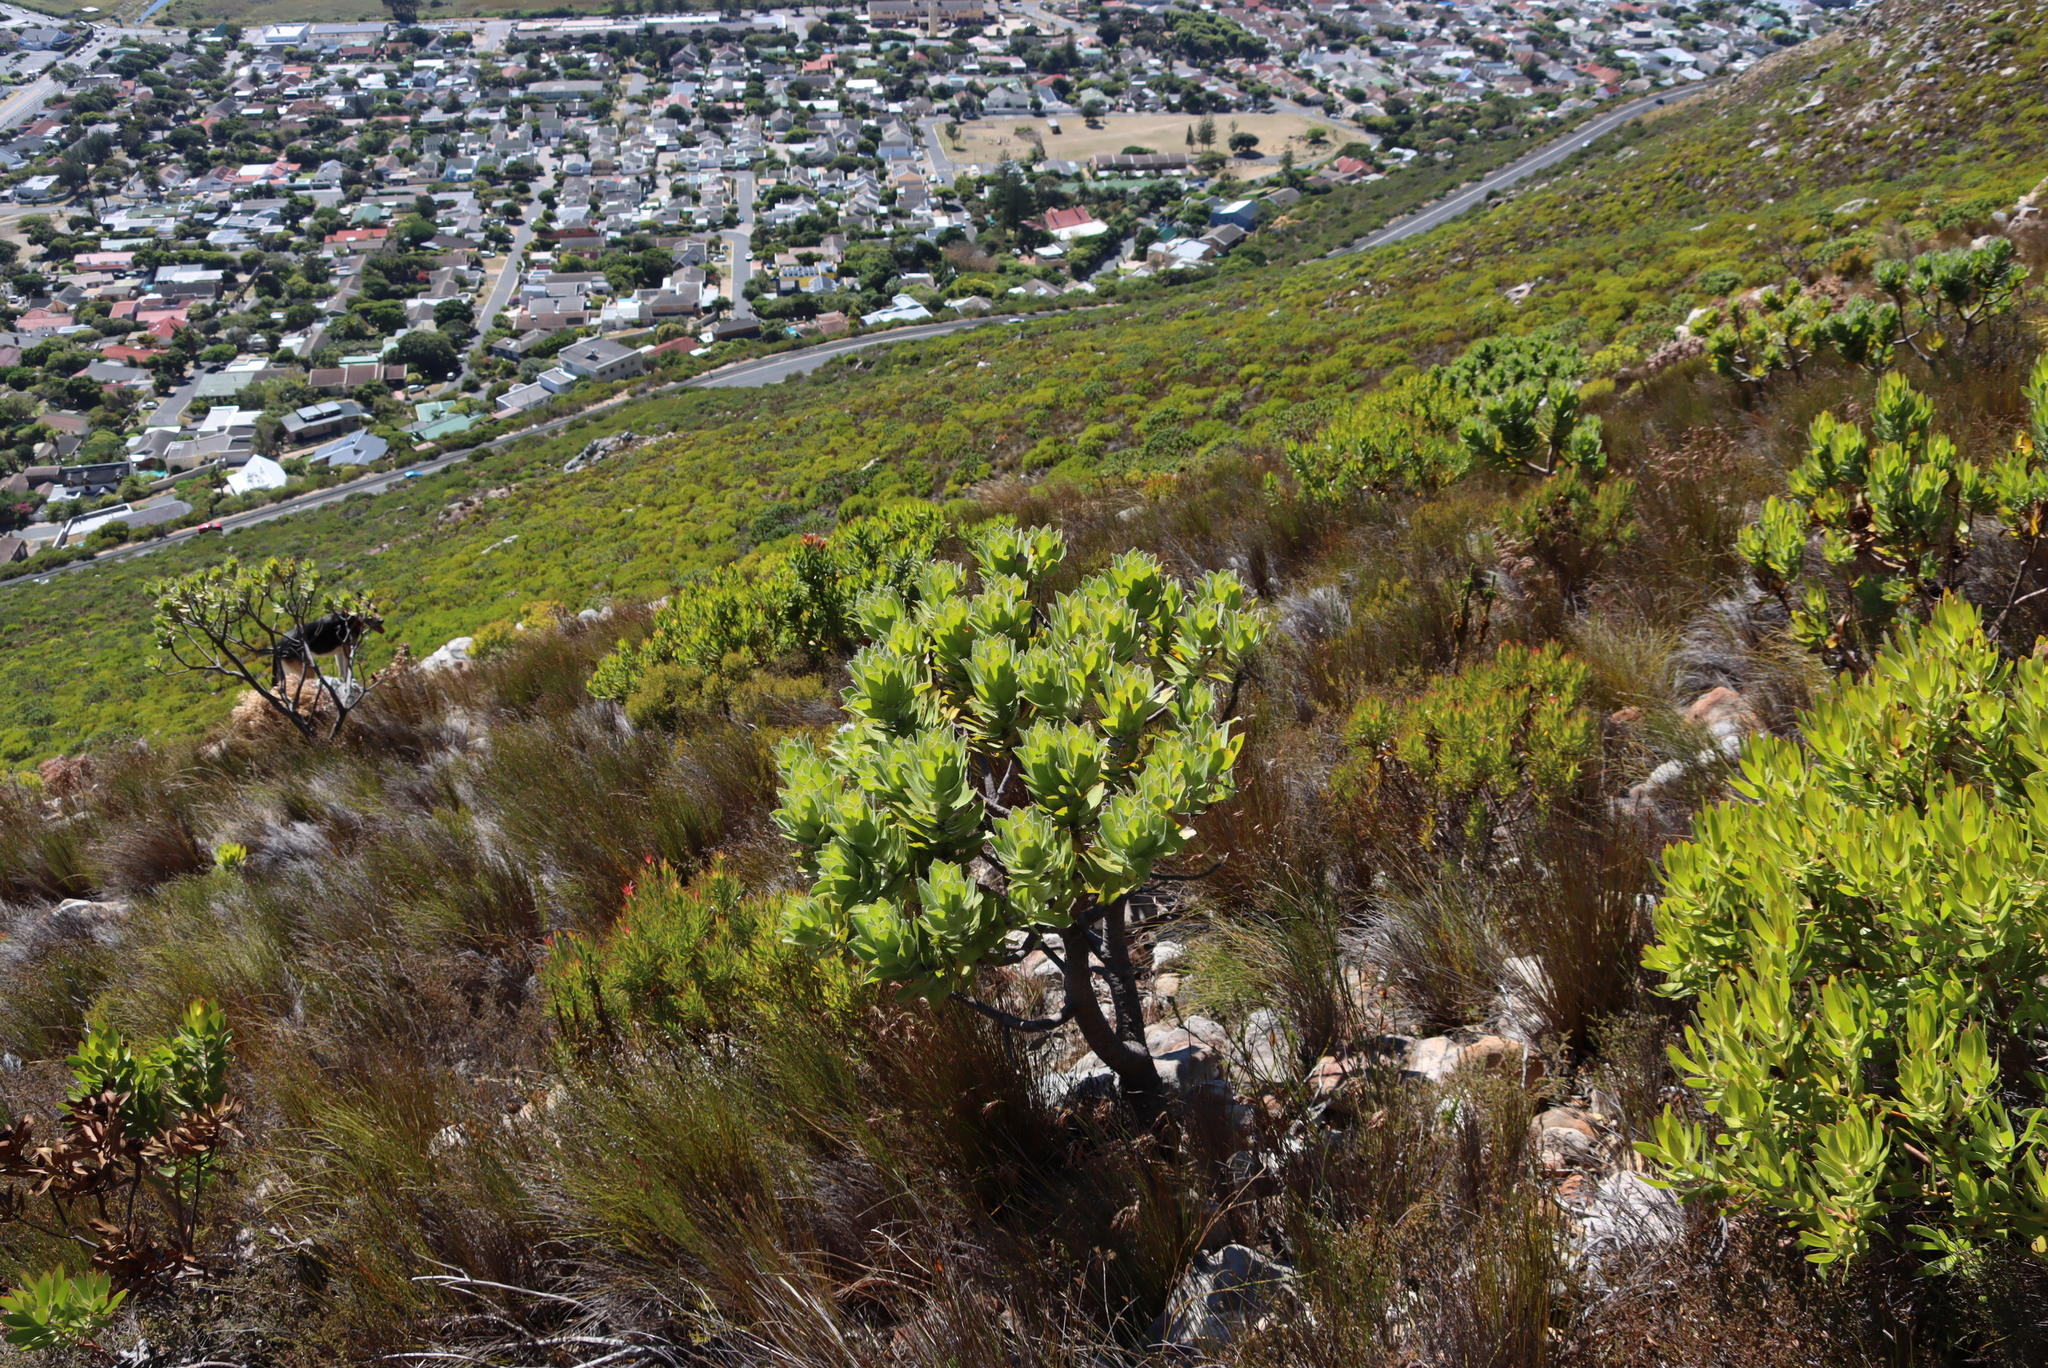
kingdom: Plantae
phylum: Tracheophyta
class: Magnoliopsida
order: Proteales
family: Proteaceae
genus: Leucospermum
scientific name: Leucospermum conocarpodendron
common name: Tree pincushion
